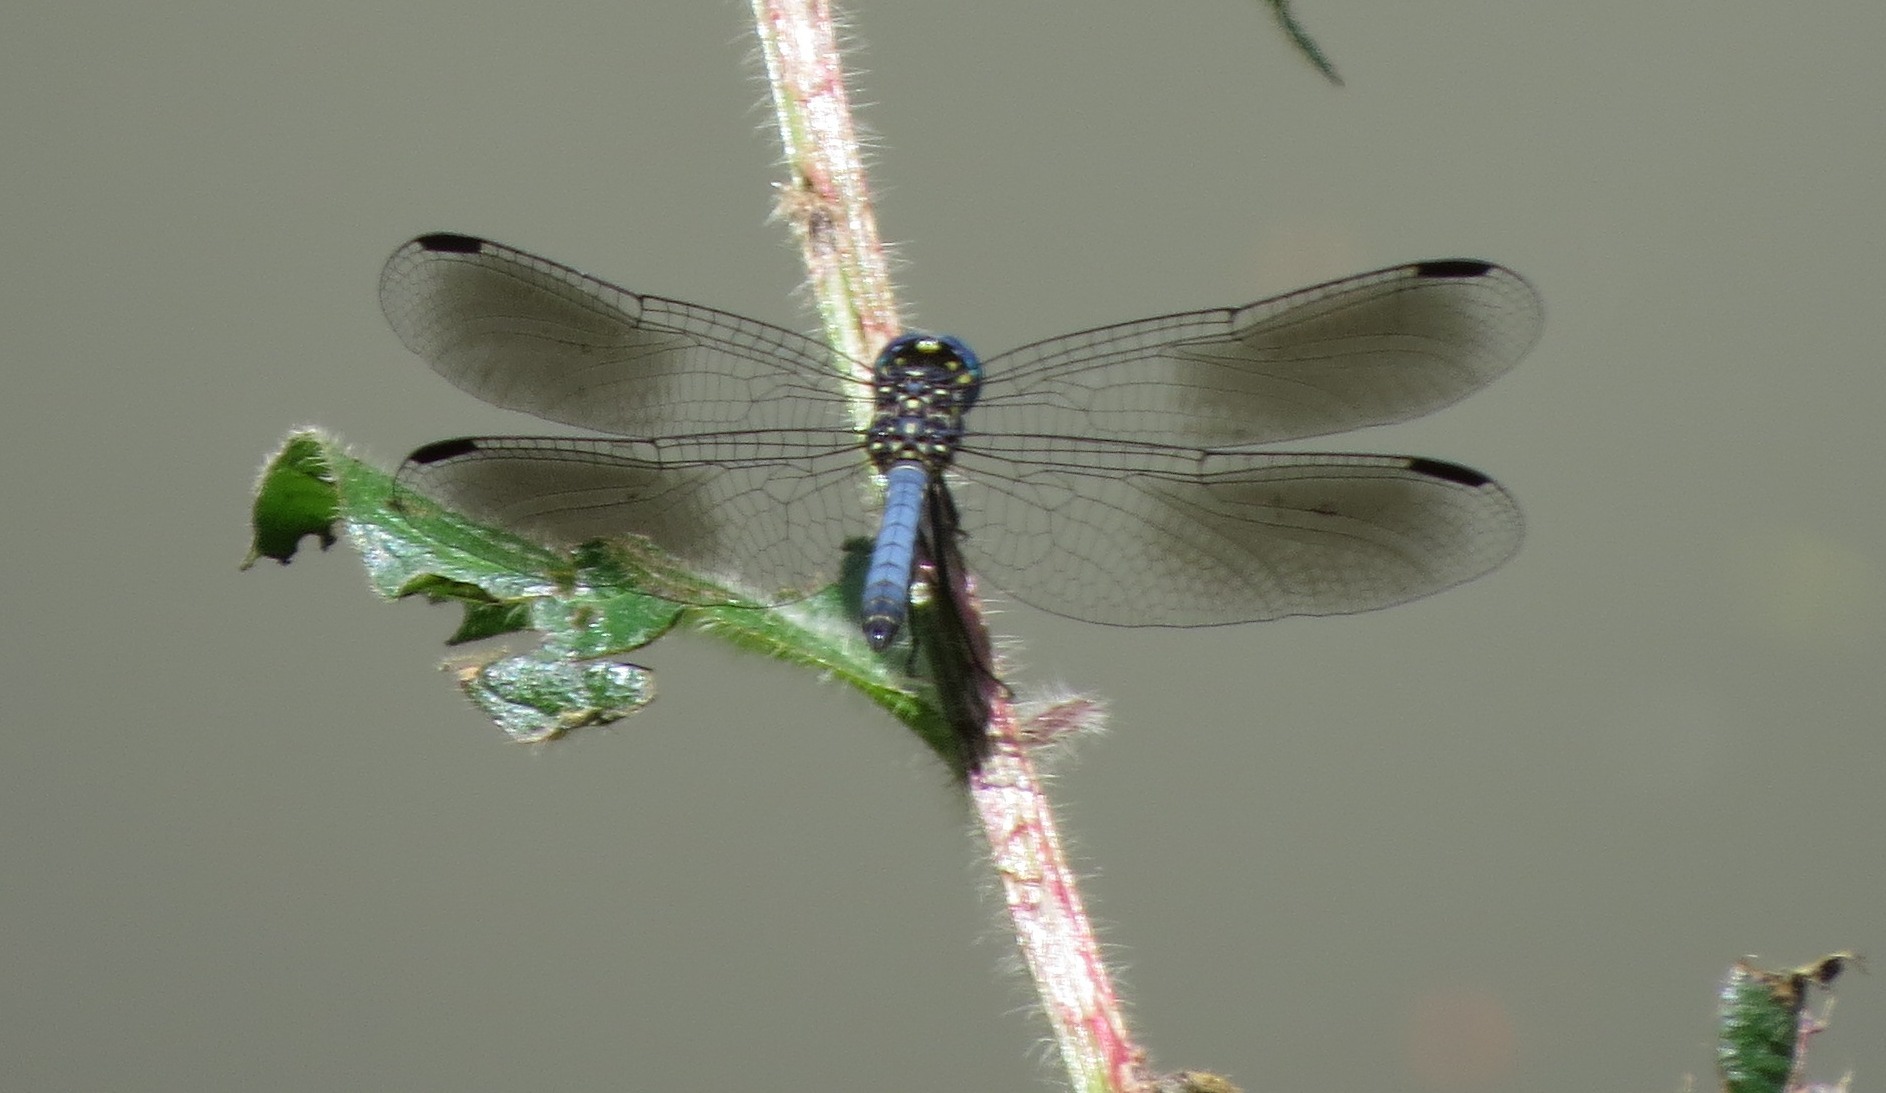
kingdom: Animalia
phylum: Arthropoda
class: Insecta
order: Odonata
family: Libellulidae
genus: Tetrathemis
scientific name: Tetrathemis polleni
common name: Black-splashed elf
